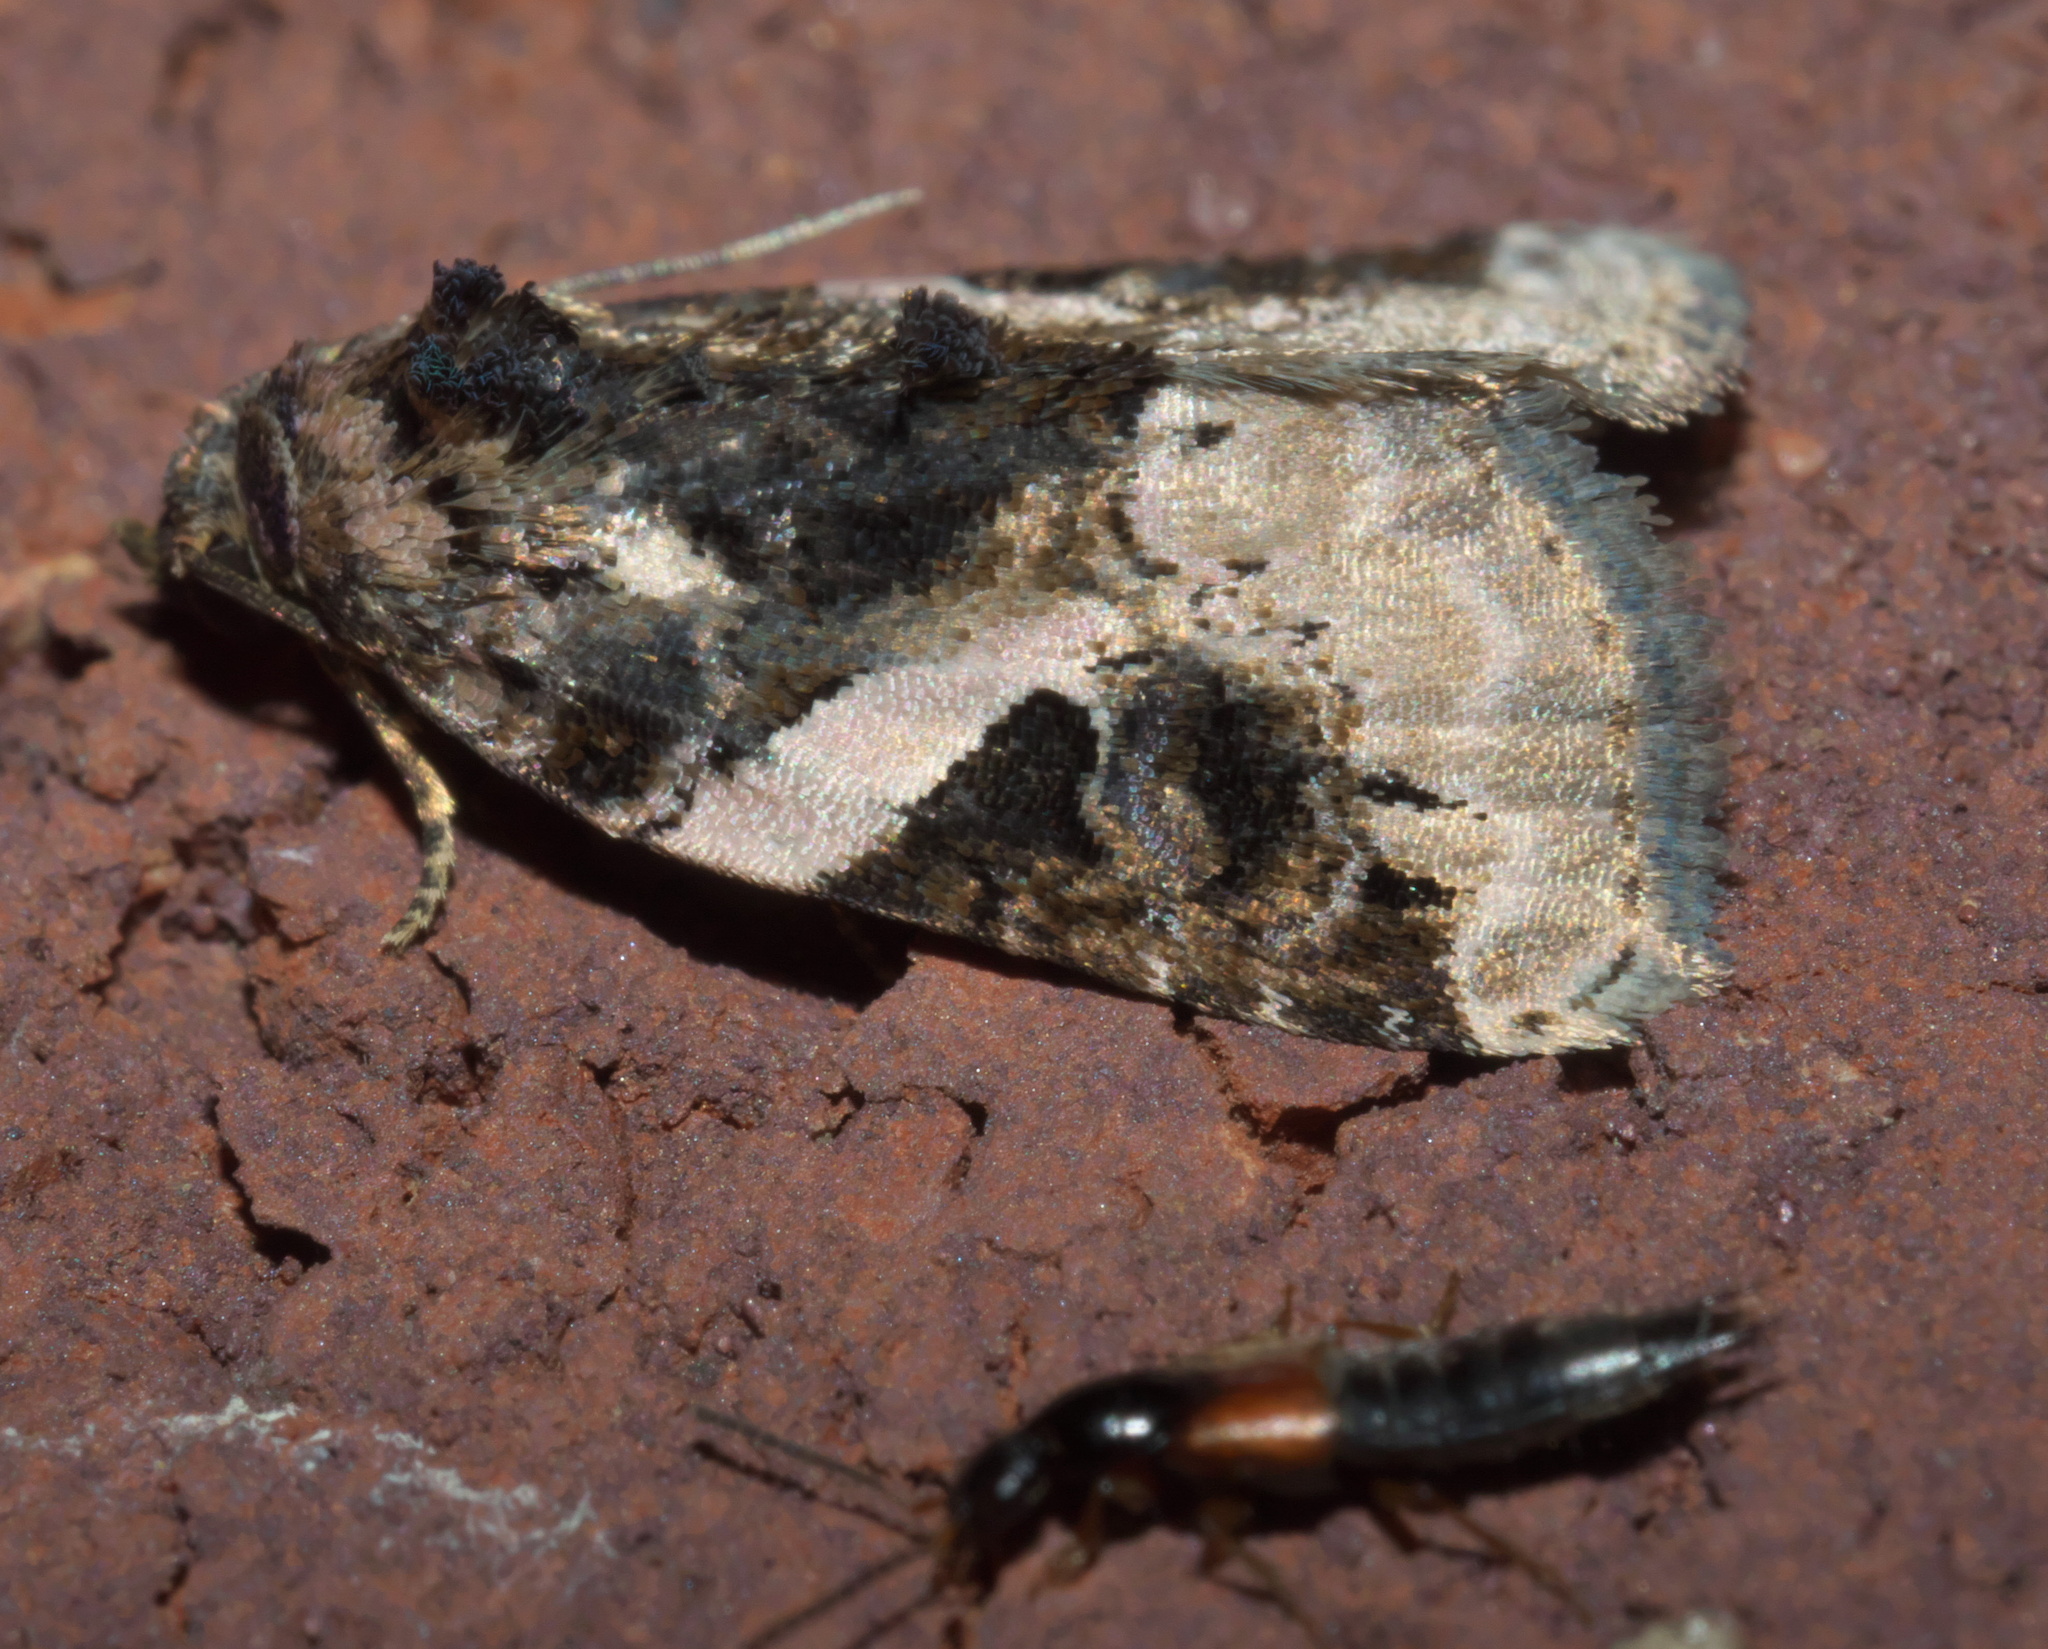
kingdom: Animalia
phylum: Arthropoda
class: Insecta
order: Lepidoptera
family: Noctuidae
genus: Pseudeustrotia
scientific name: Pseudeustrotia carneola
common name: Pink-barred lithacodia moth
